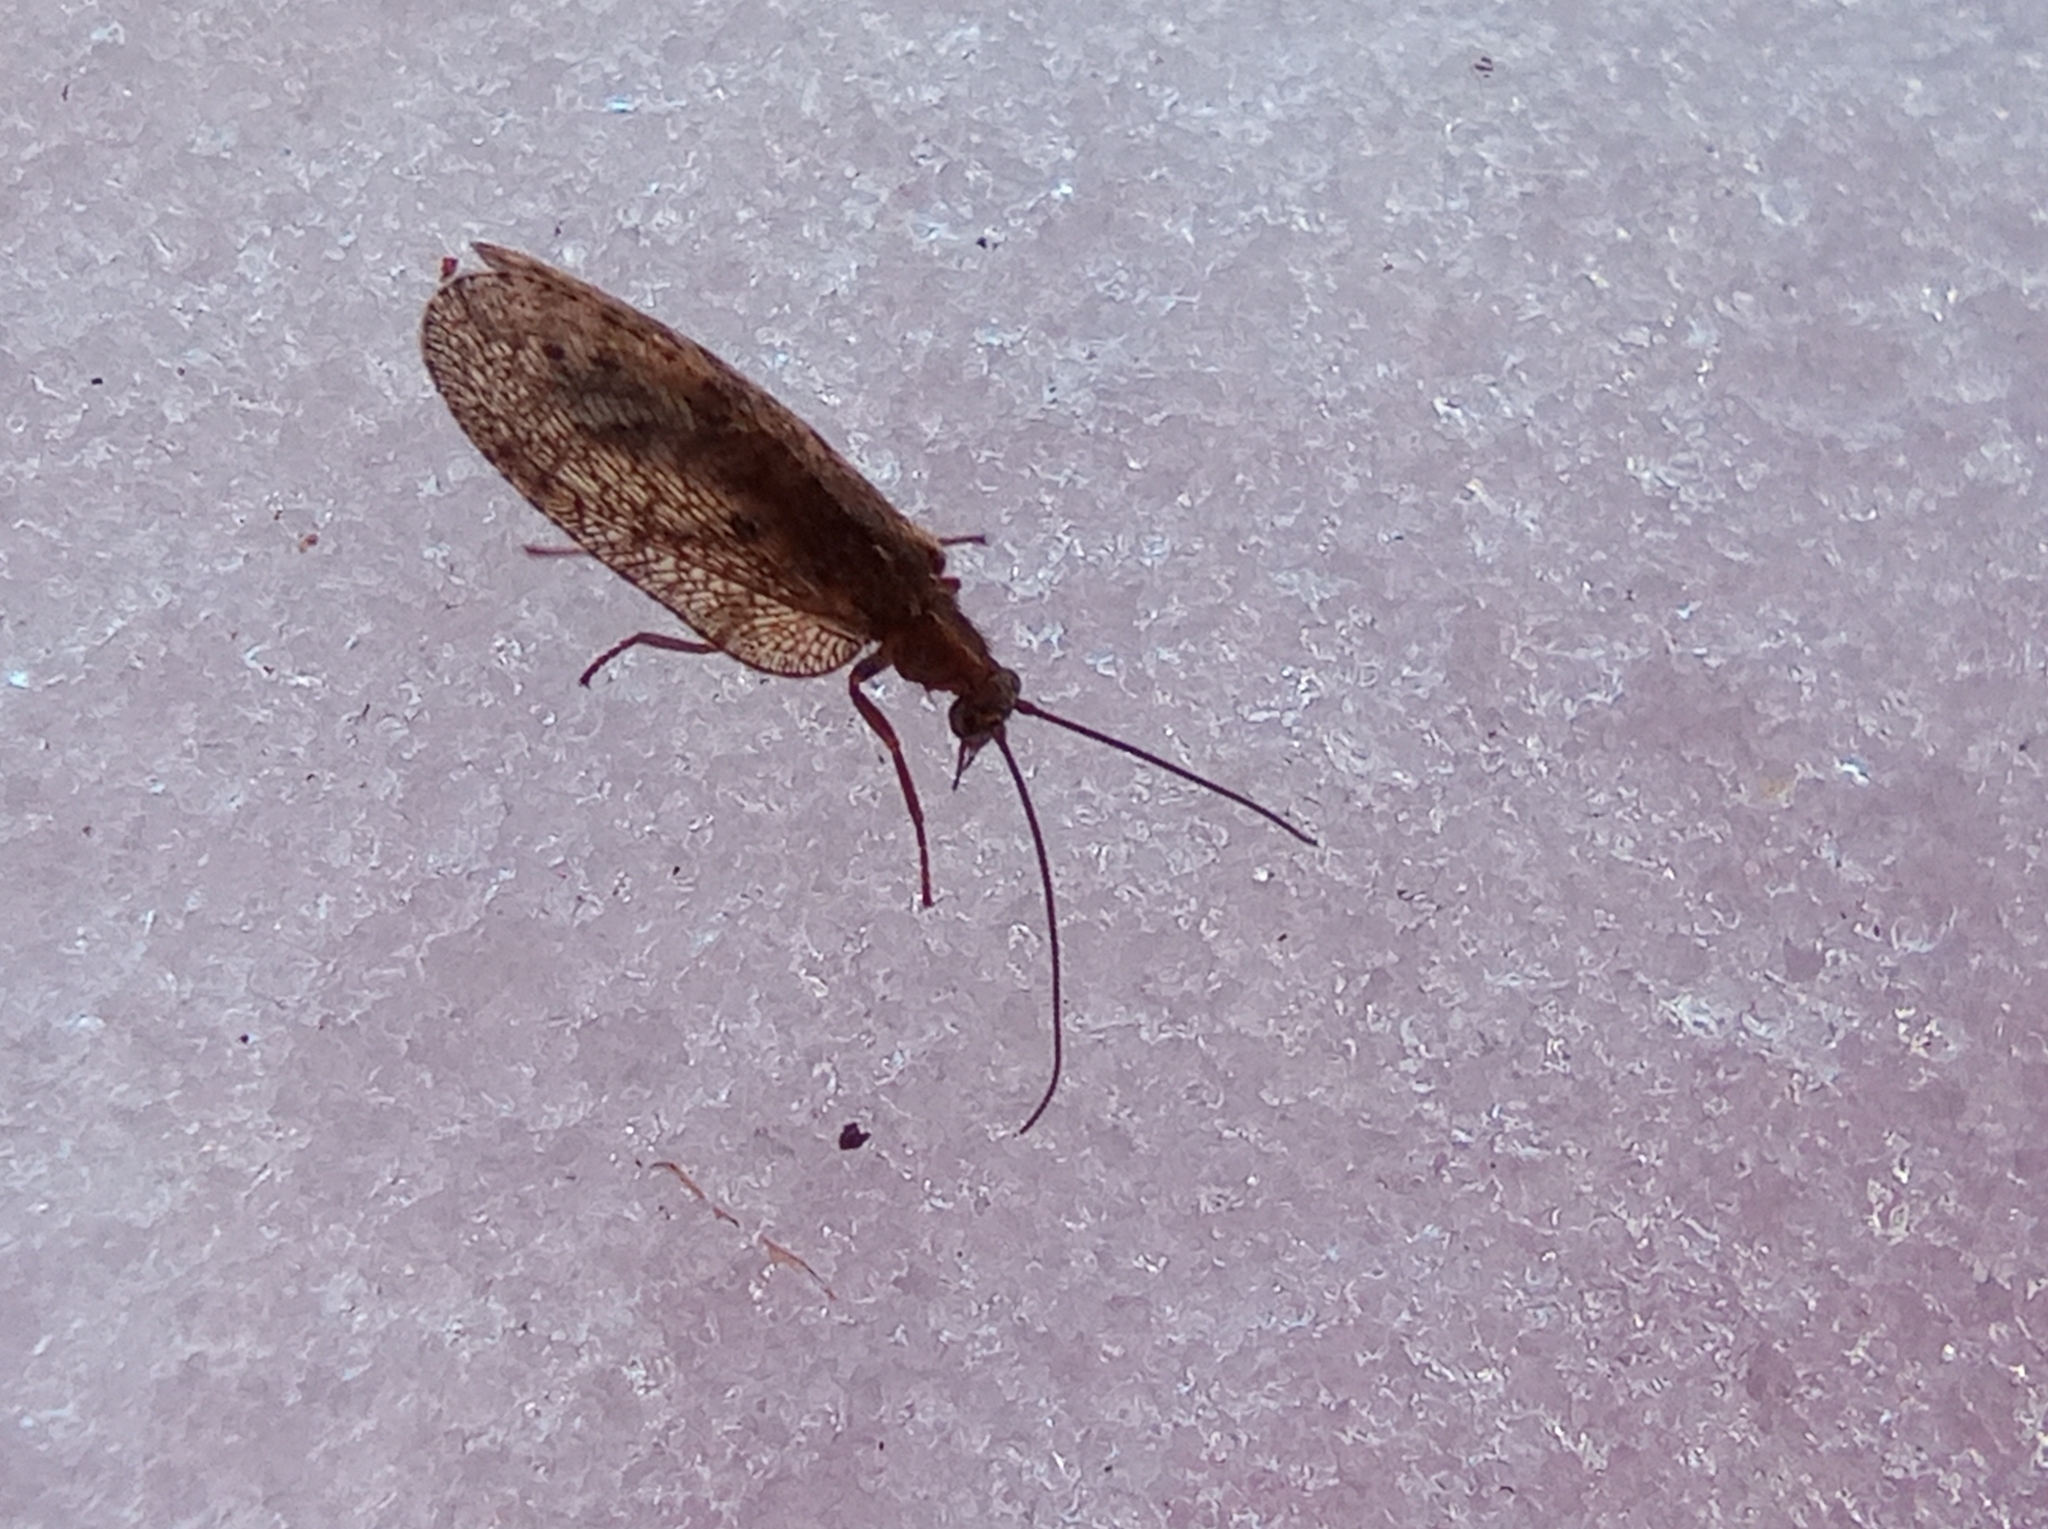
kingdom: Animalia
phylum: Arthropoda
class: Insecta
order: Neuroptera
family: Hemerobiidae
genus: Drepanepteryx
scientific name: Drepanepteryx algida
